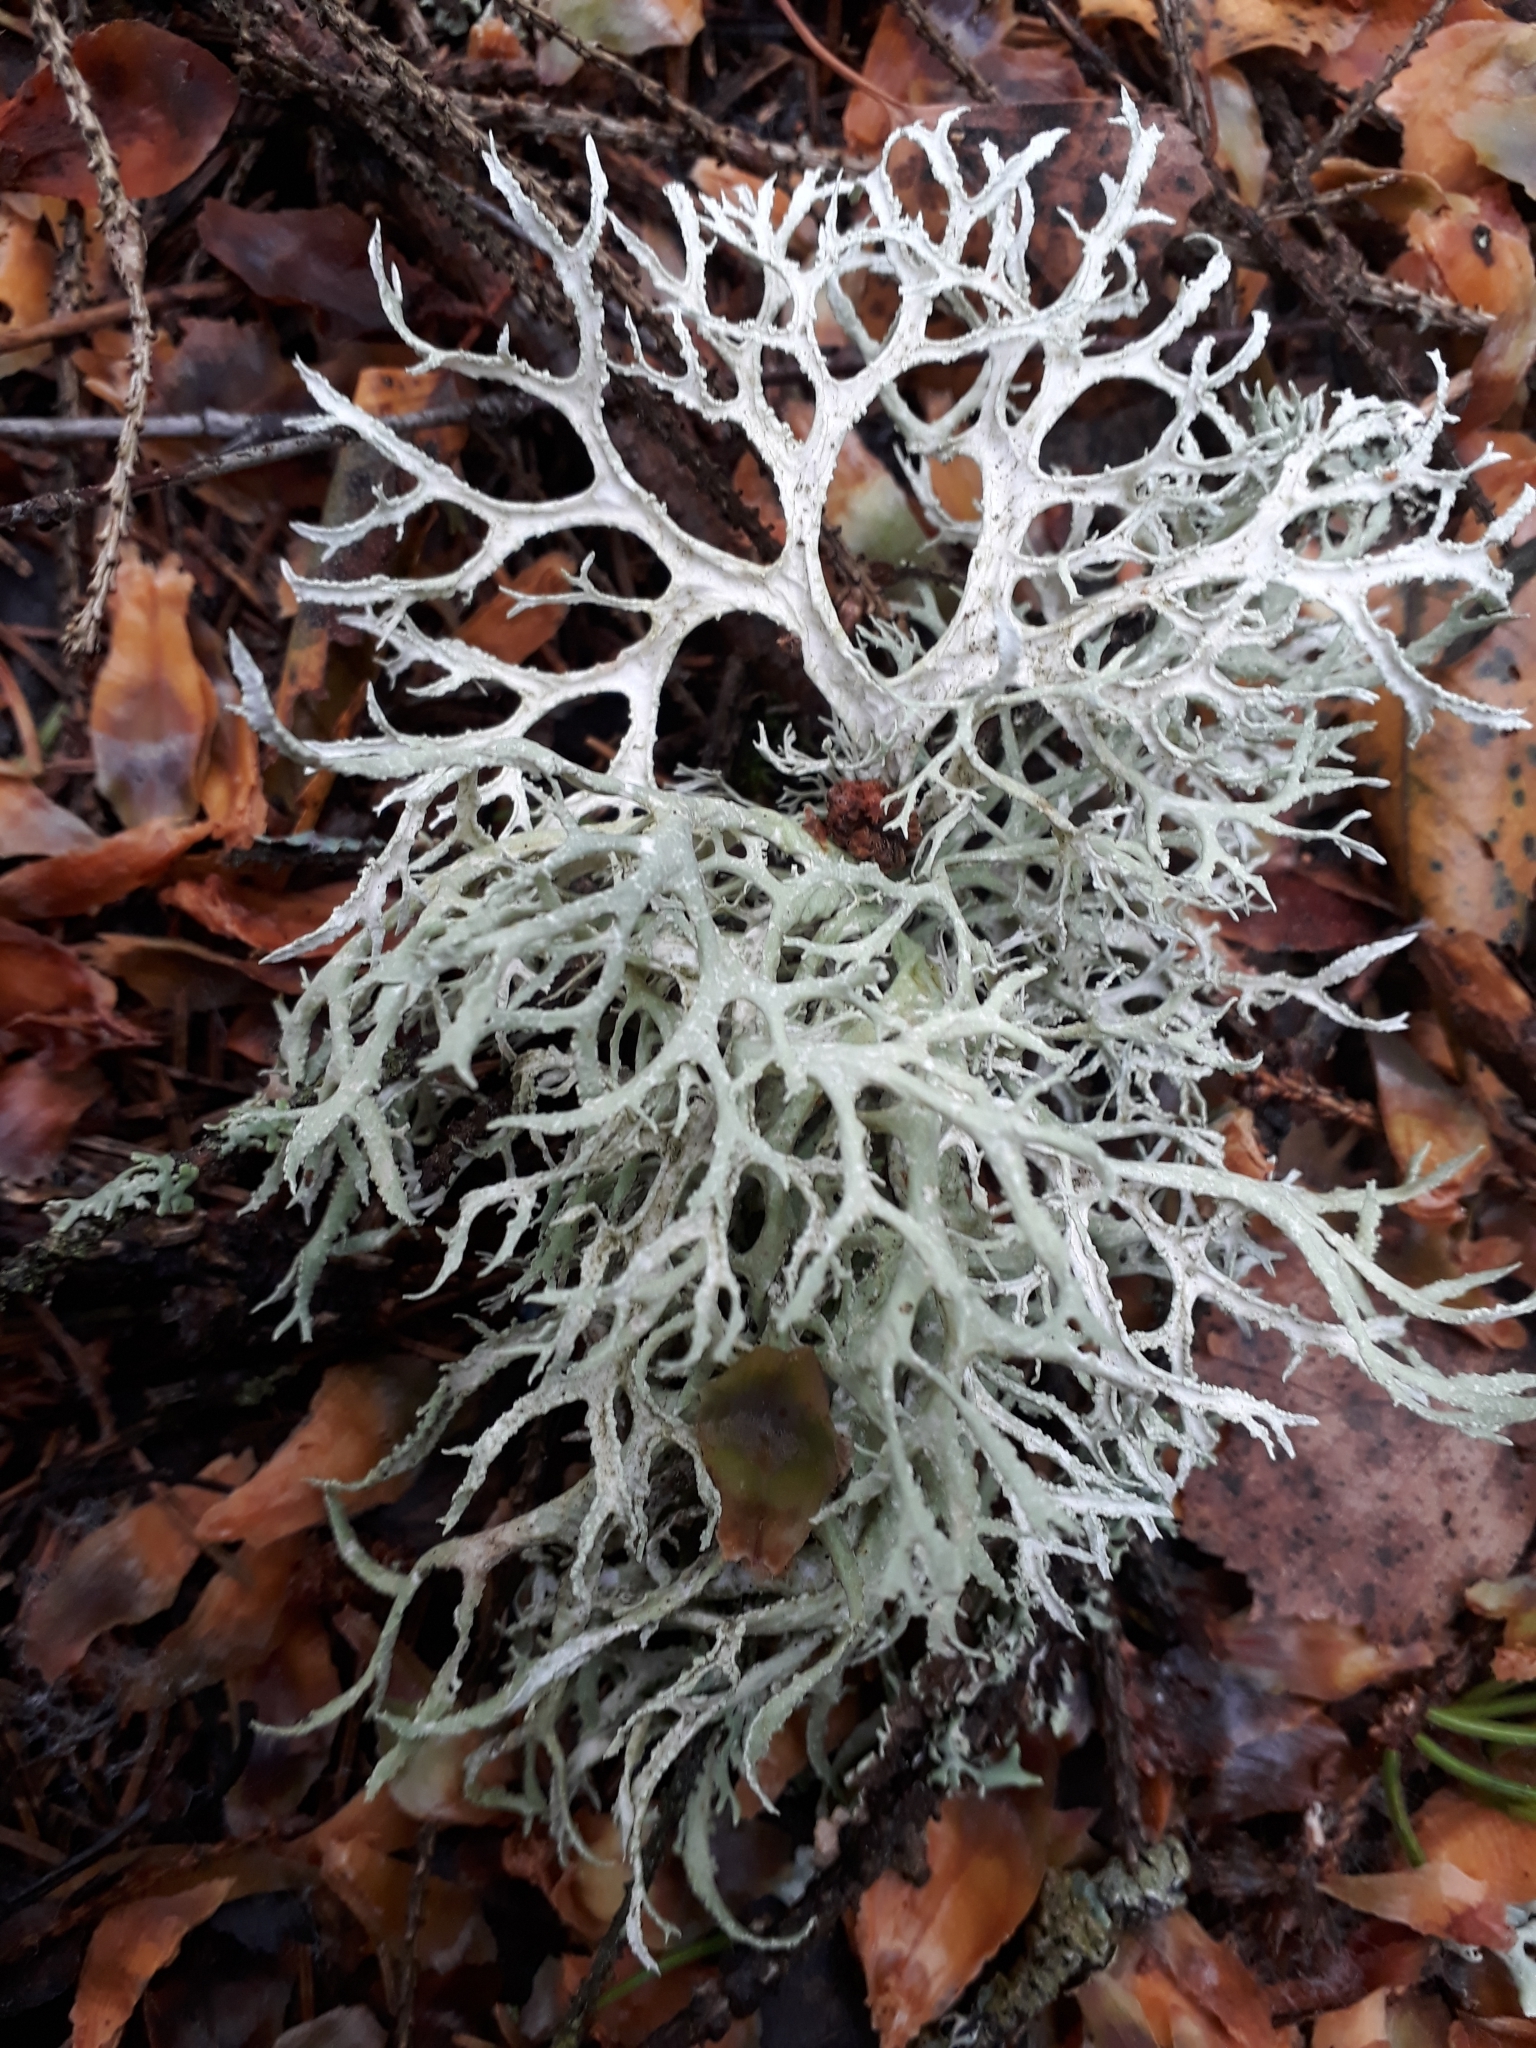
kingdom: Fungi
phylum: Ascomycota
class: Lecanoromycetes
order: Lecanorales
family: Parmeliaceae
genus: Evernia
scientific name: Evernia prunastri
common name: Oak moss
